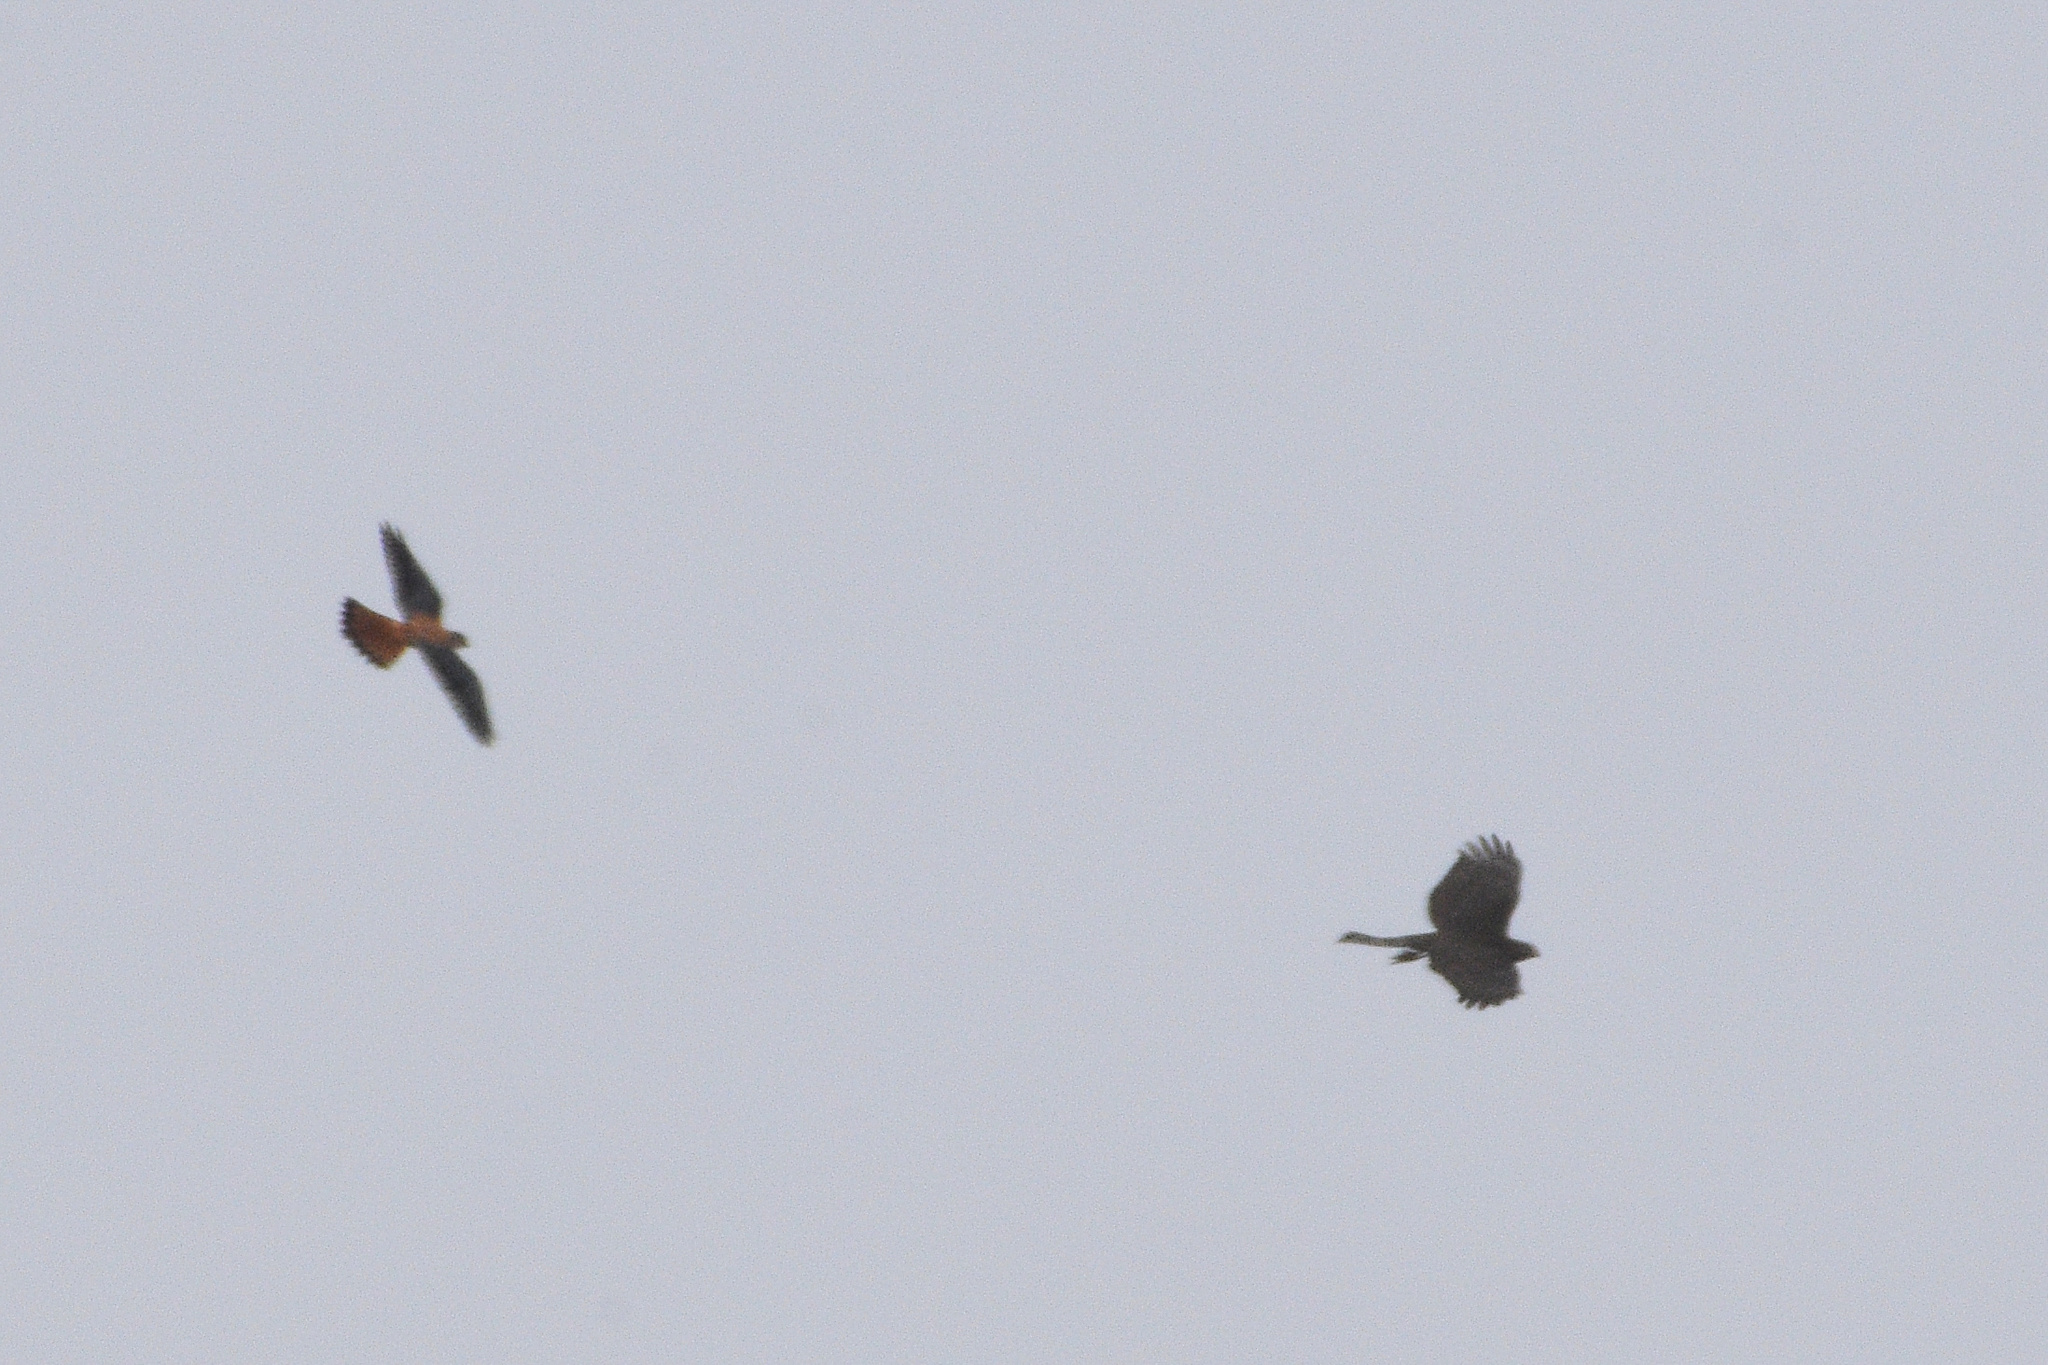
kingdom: Animalia
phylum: Chordata
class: Aves
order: Accipitriformes
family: Accipitridae
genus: Accipiter
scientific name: Accipiter striatus
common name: Sharp-shinned hawk
